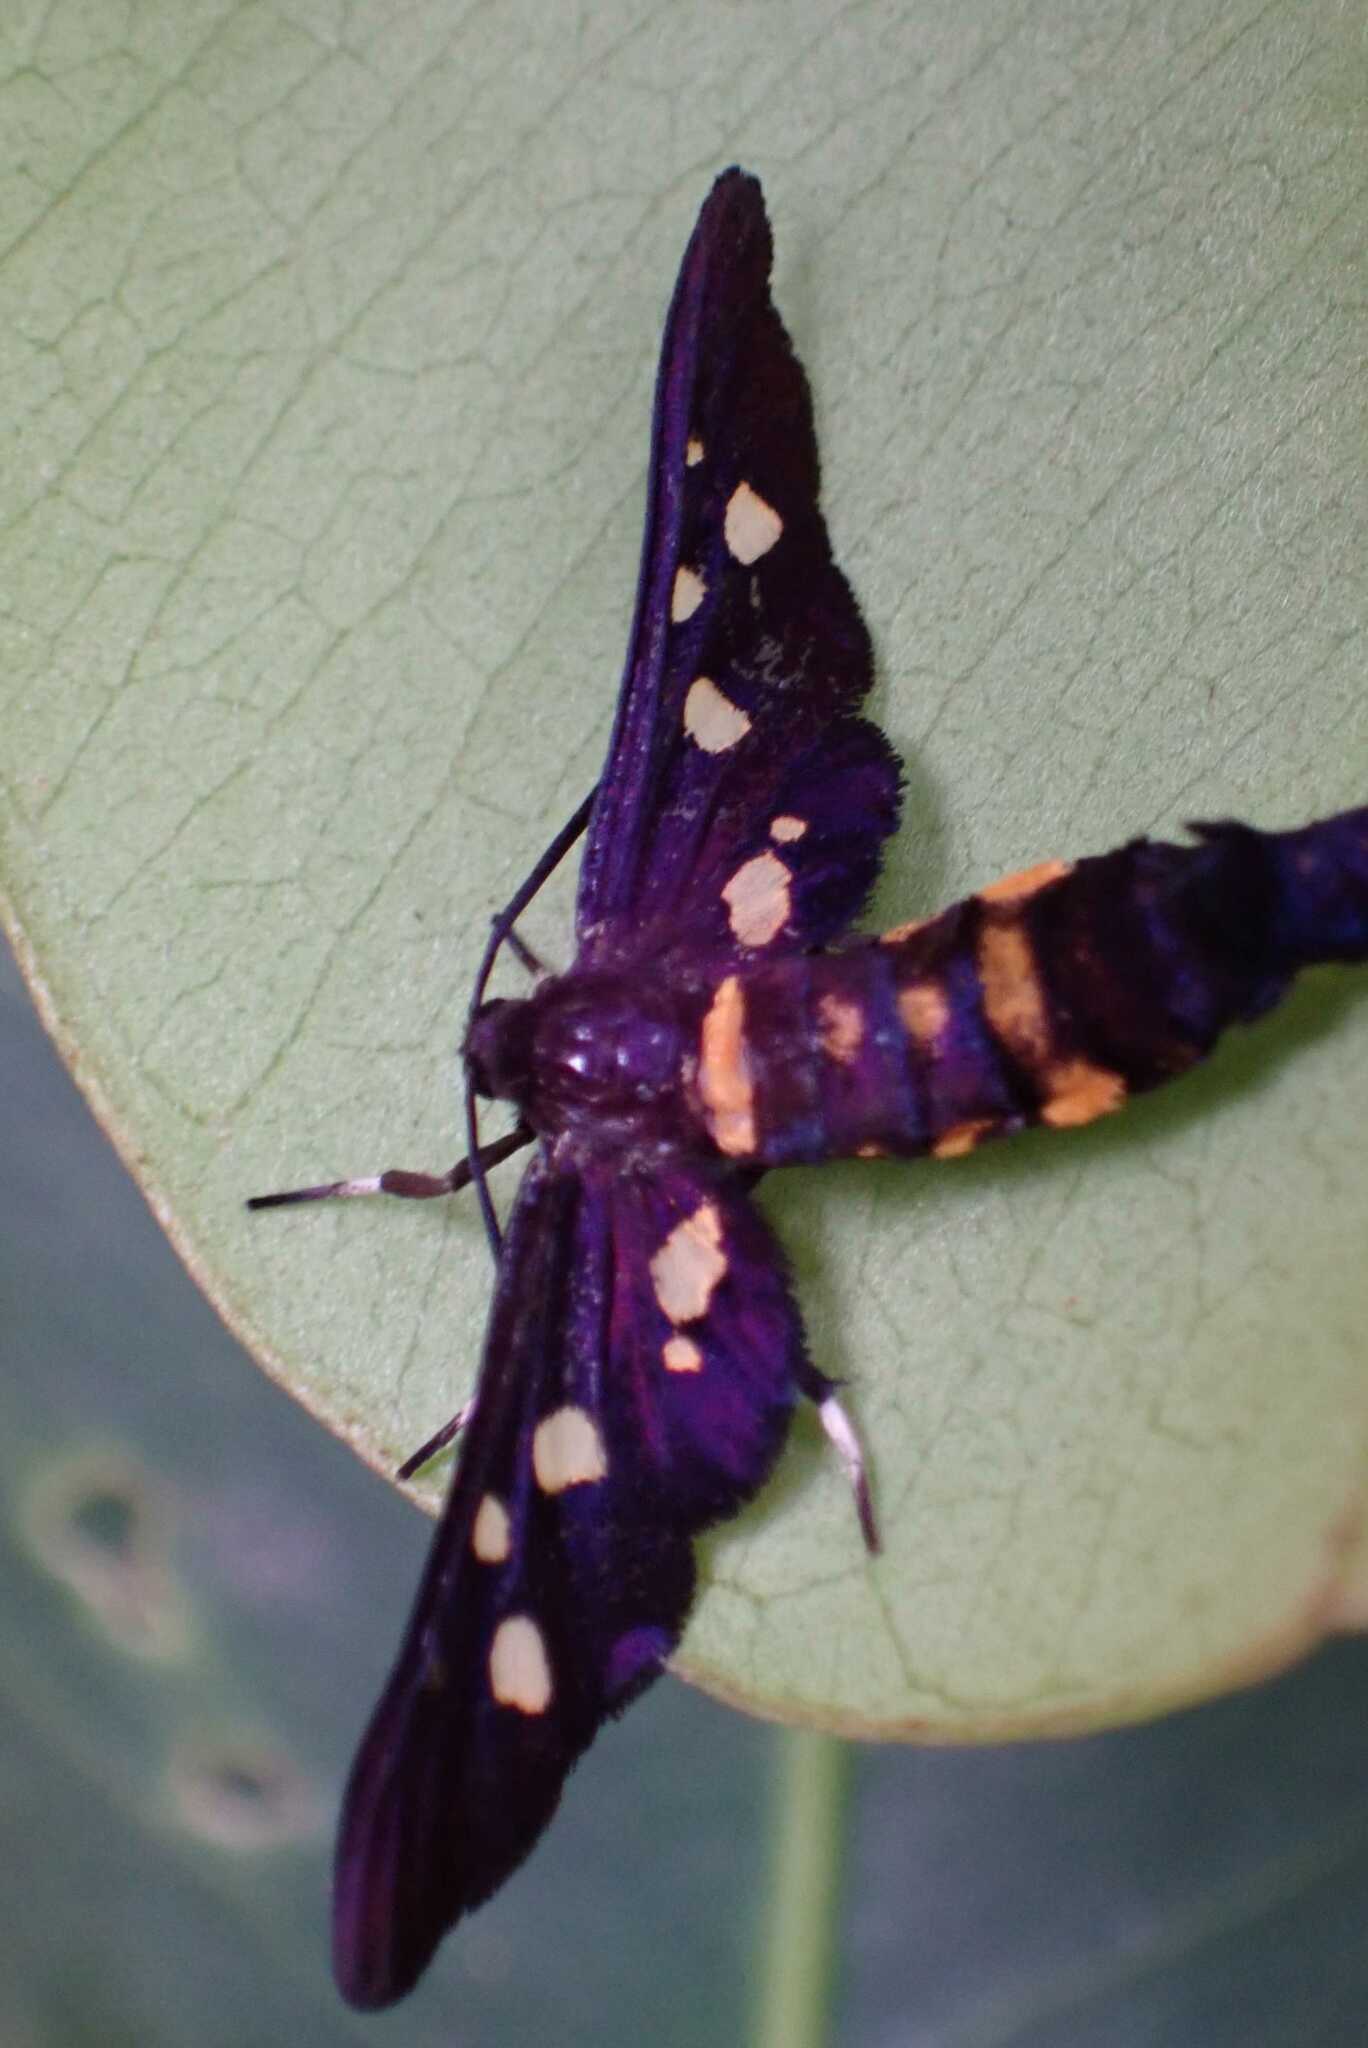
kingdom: Animalia
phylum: Arthropoda
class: Insecta
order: Lepidoptera
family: Erebidae
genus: Hampsonata
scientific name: Hampsonata xaixaia
